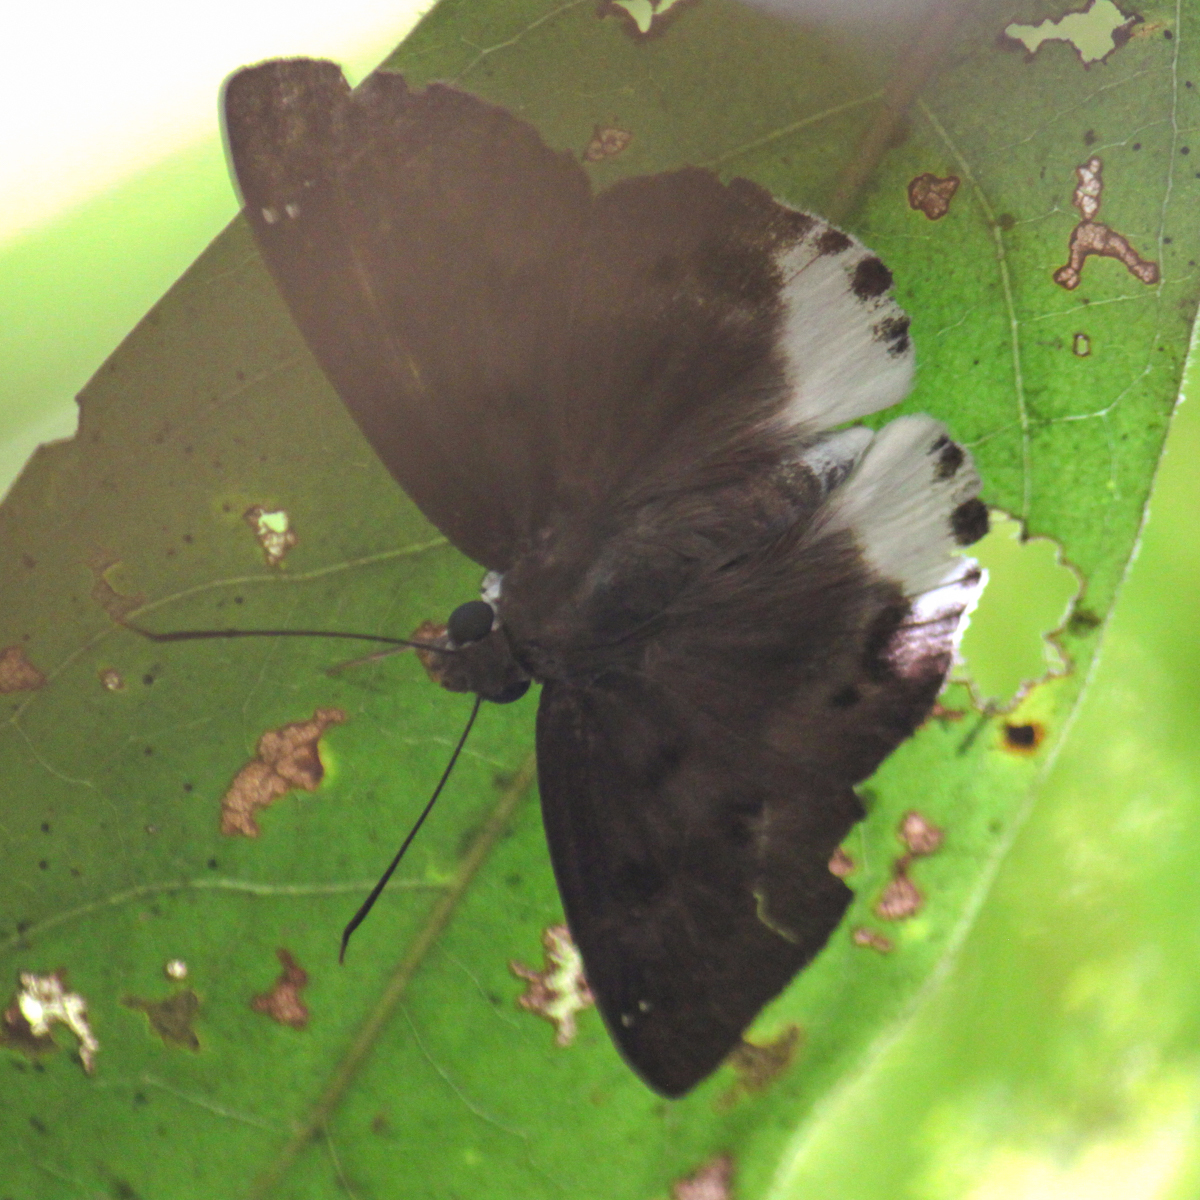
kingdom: Animalia
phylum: Arthropoda
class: Insecta
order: Lepidoptera
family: Hesperiidae
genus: Tagiades
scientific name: Tagiades parra
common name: Straight snow flat
